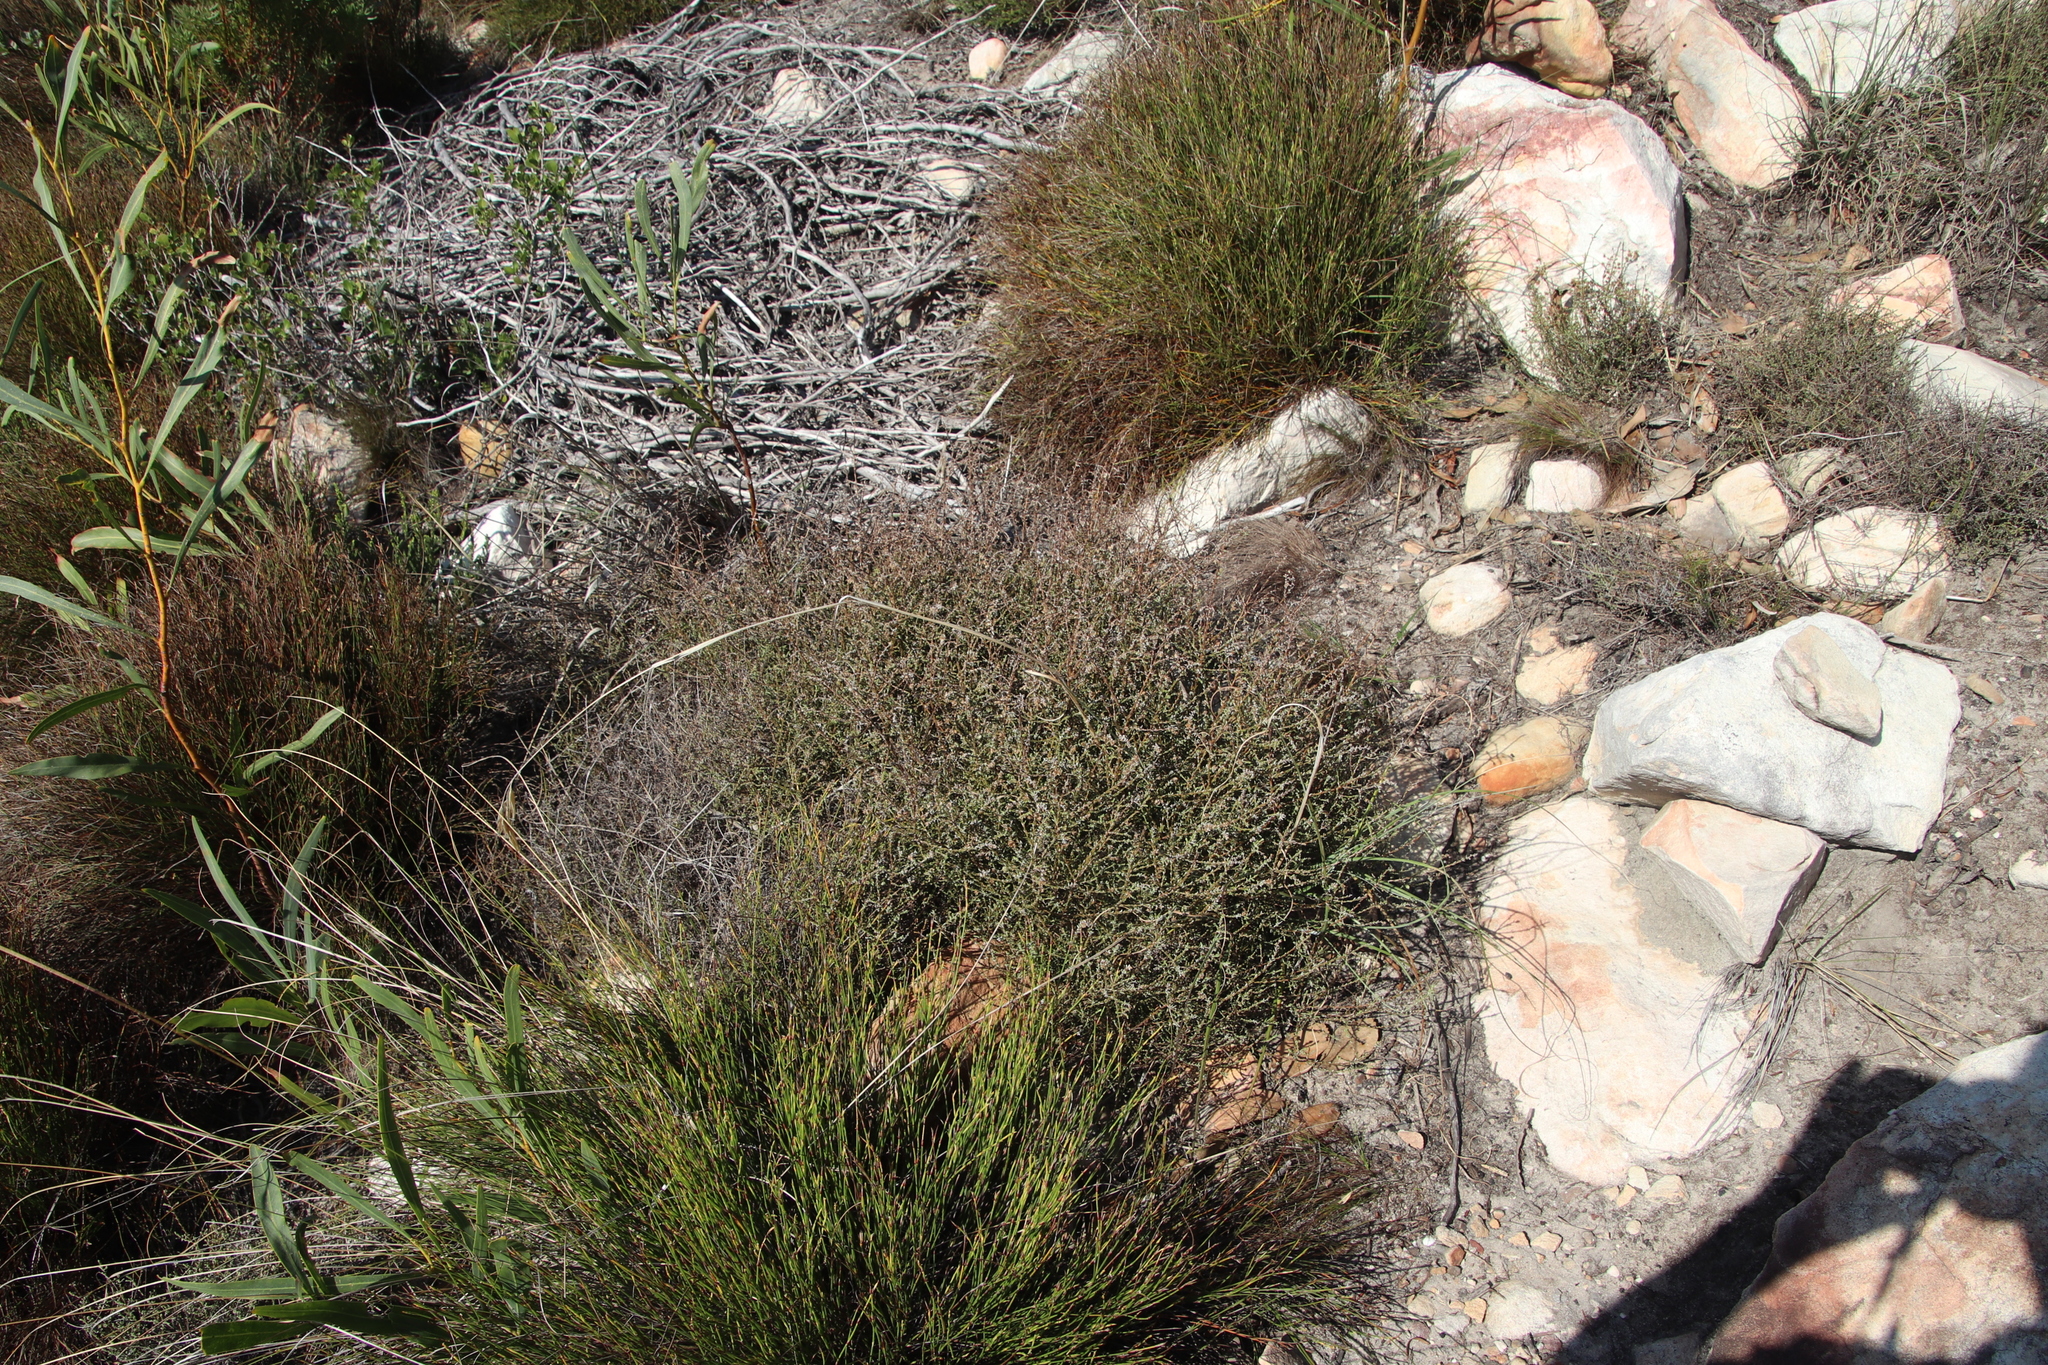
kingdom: Plantae
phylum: Tracheophyta
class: Magnoliopsida
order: Asterales
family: Asteraceae
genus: Myrovernix
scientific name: Myrovernix scaber
